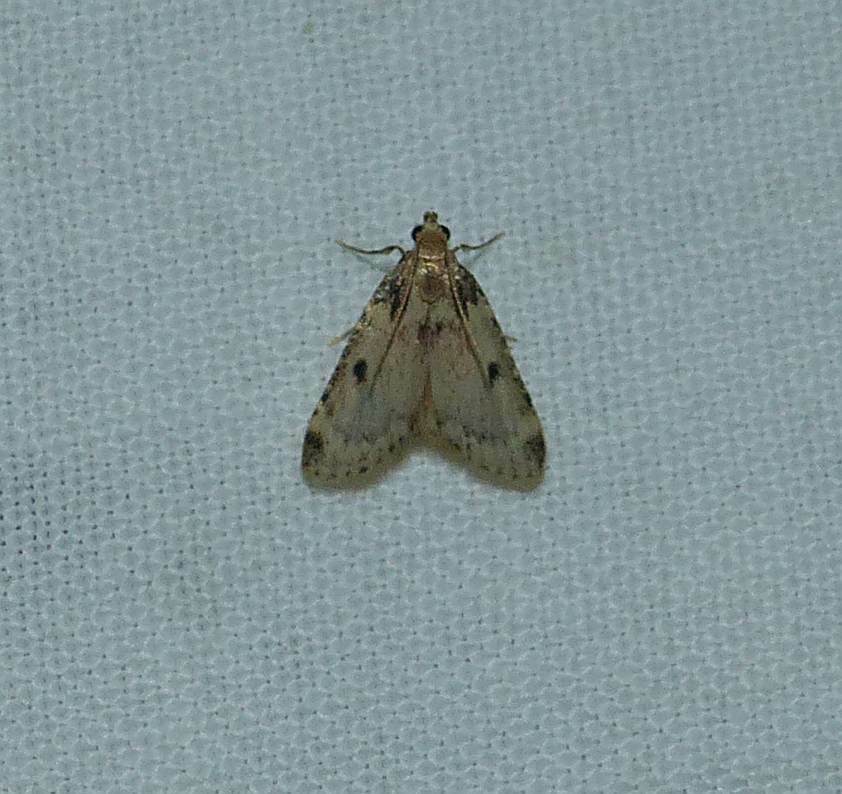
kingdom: Animalia
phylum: Arthropoda
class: Insecta
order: Lepidoptera
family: Pyralidae
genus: Aglossa
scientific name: Aglossa costiferalis
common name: Calico pyralid moth
